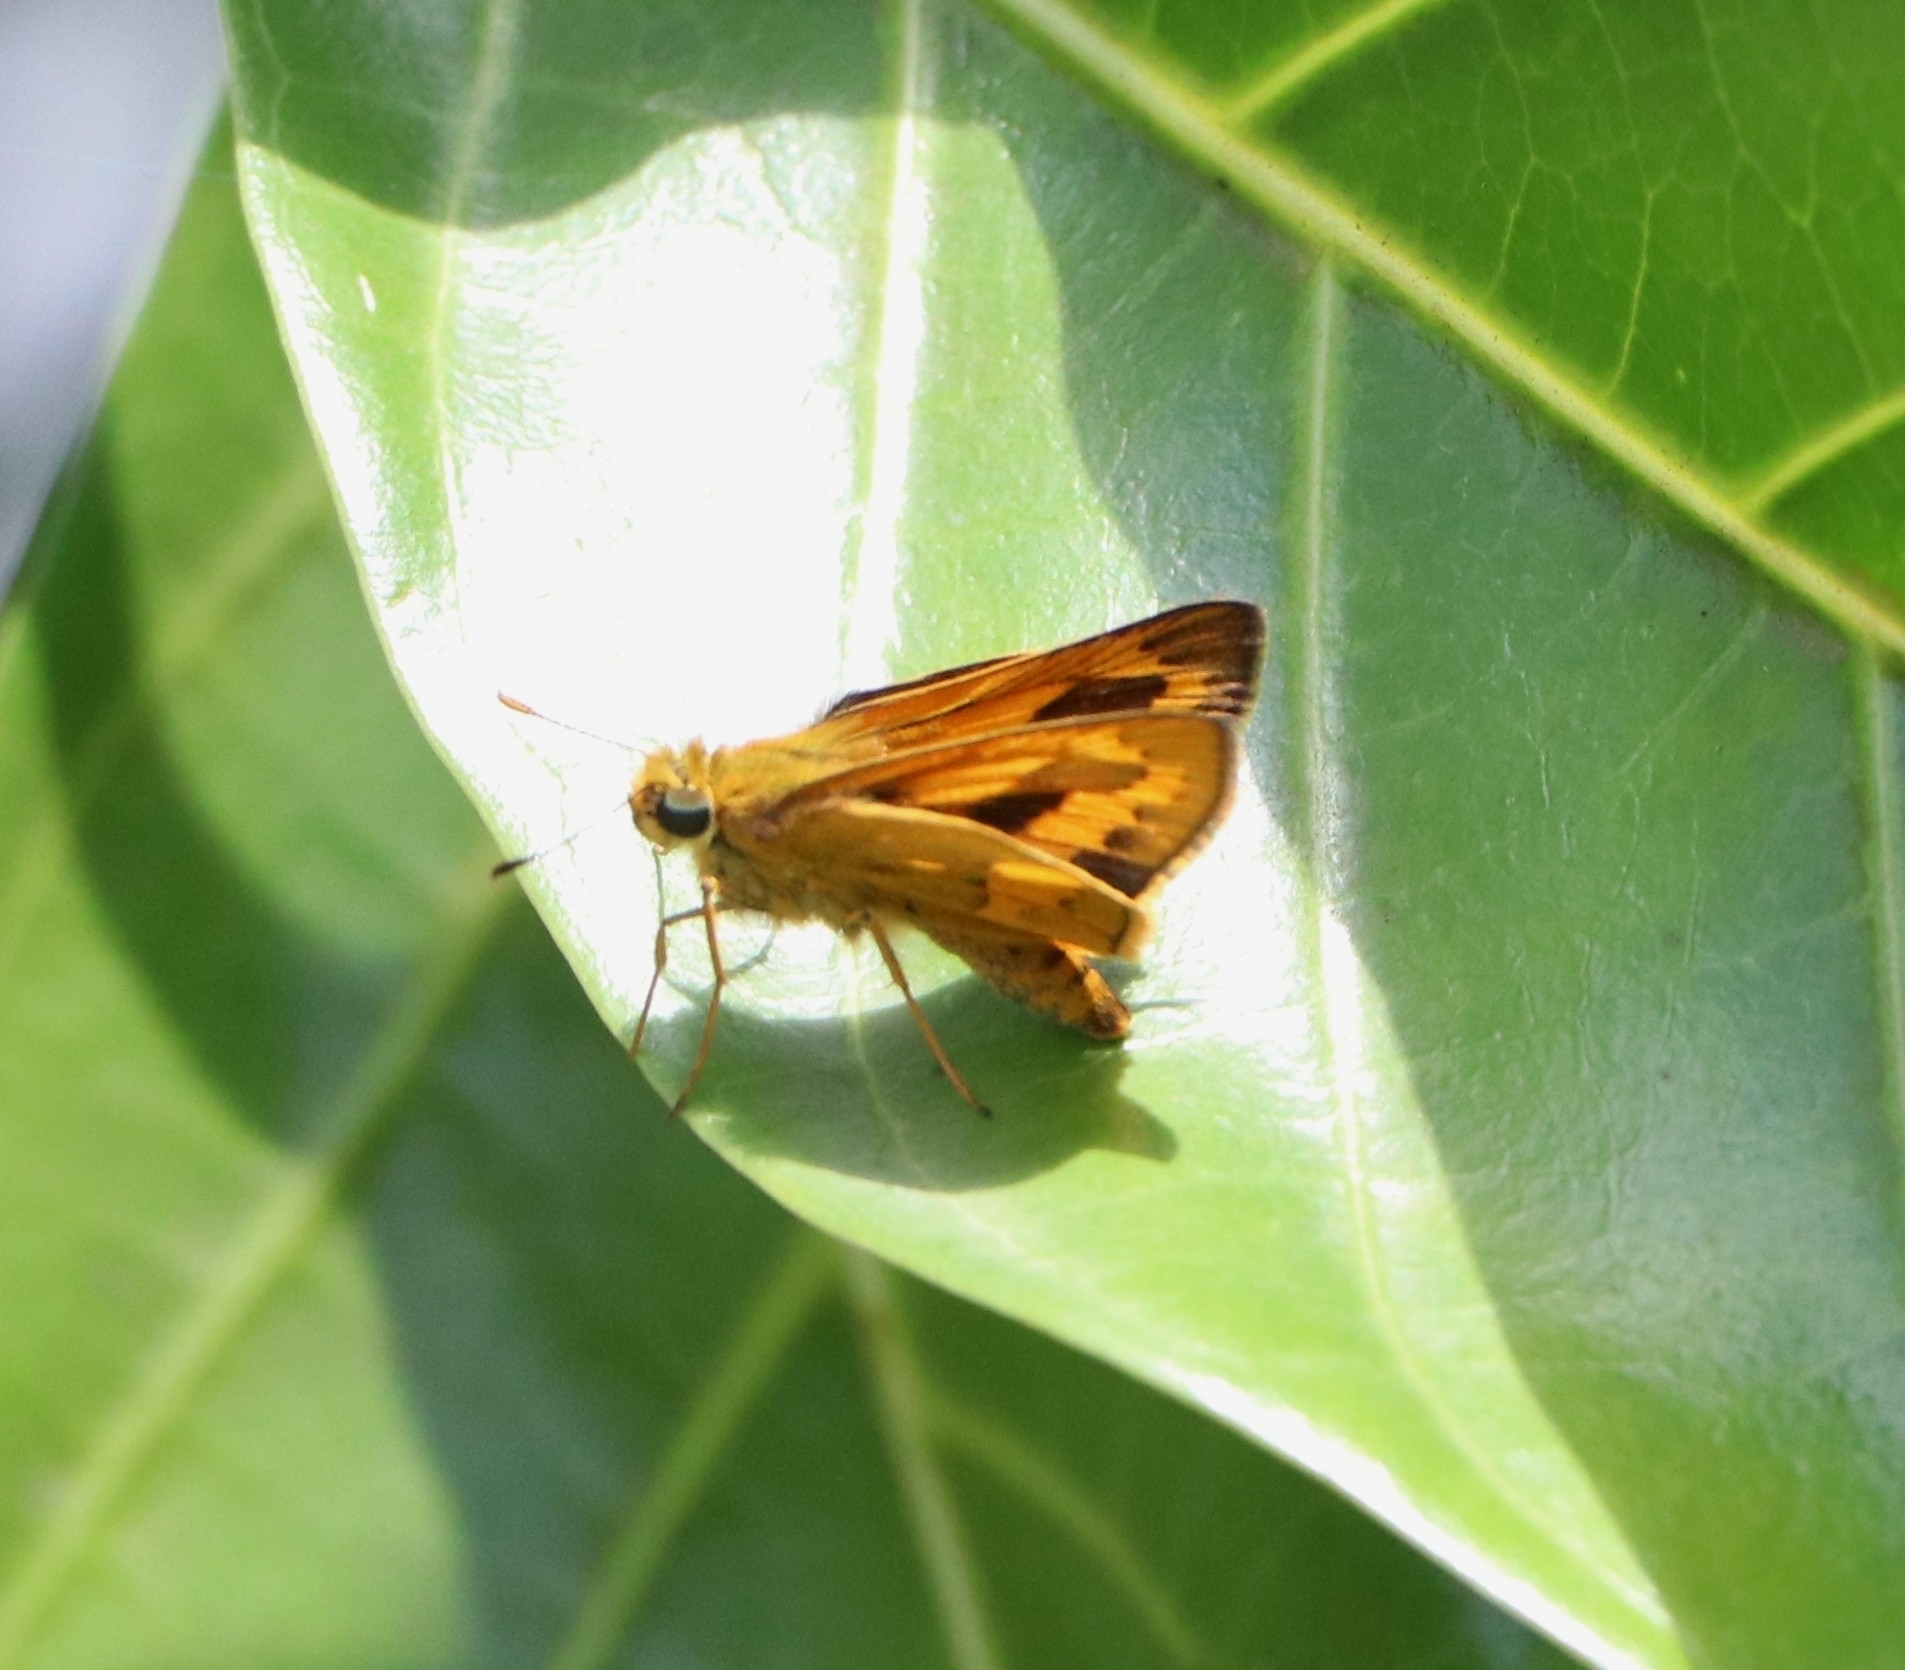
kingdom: Animalia
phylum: Arthropoda
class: Insecta
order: Lepidoptera
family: Hesperiidae
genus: Telicota
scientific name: Telicota bambusae
